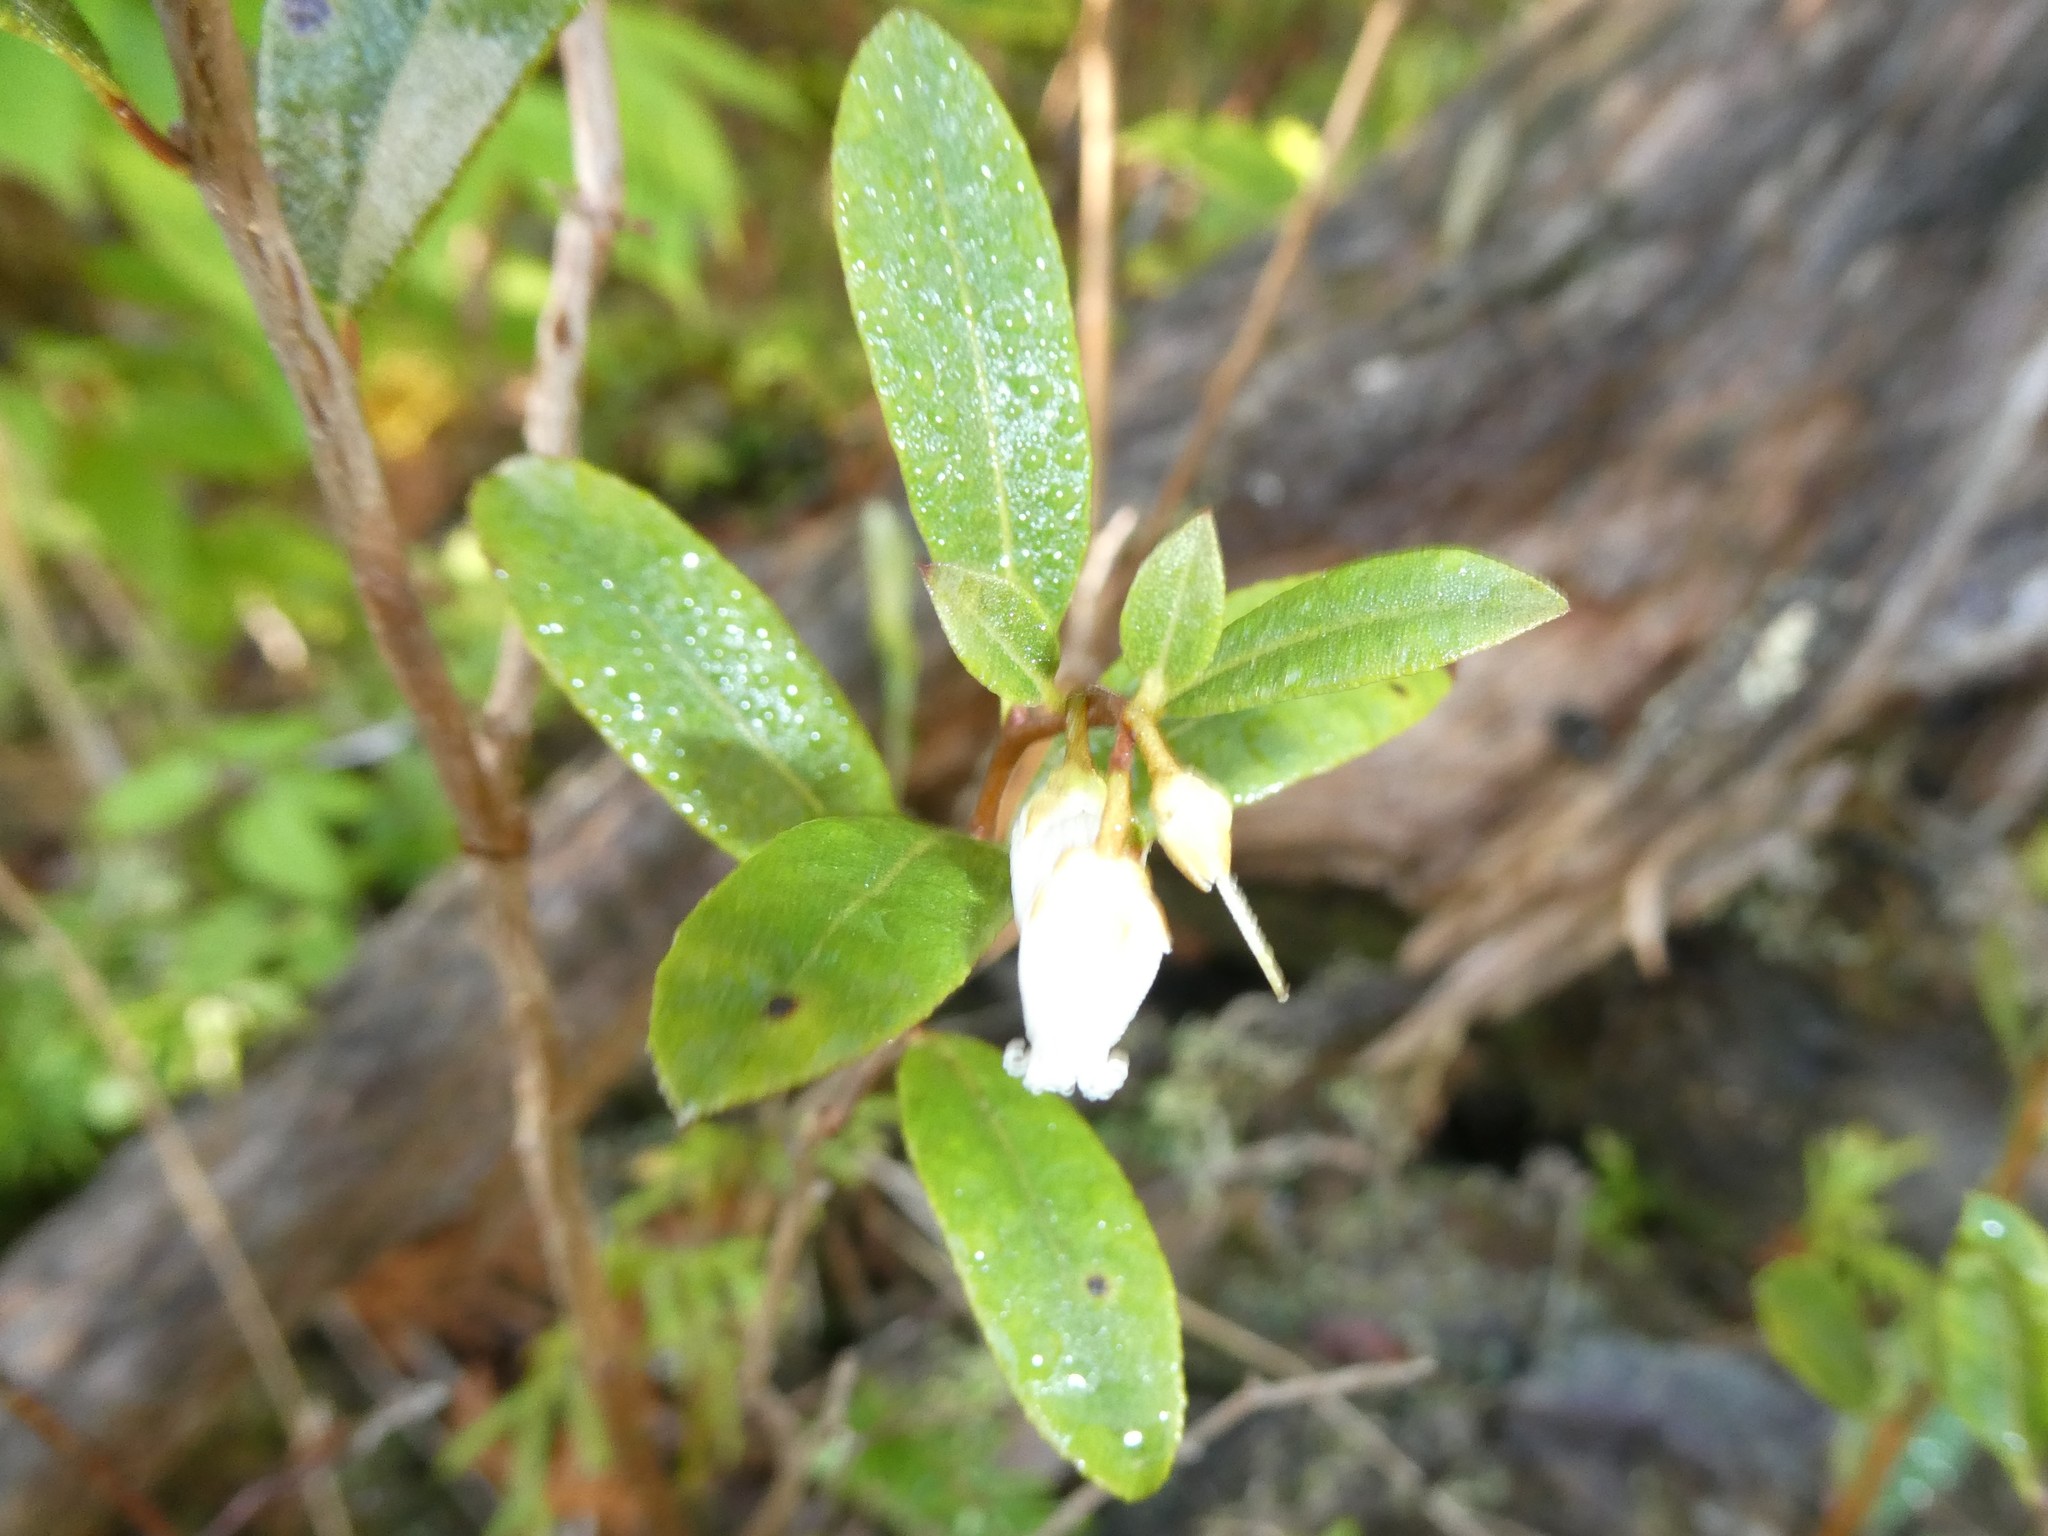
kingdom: Plantae
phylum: Tracheophyta
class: Magnoliopsida
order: Ericales
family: Ericaceae
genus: Chamaedaphne
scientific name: Chamaedaphne calyculata
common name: Leatherleaf
